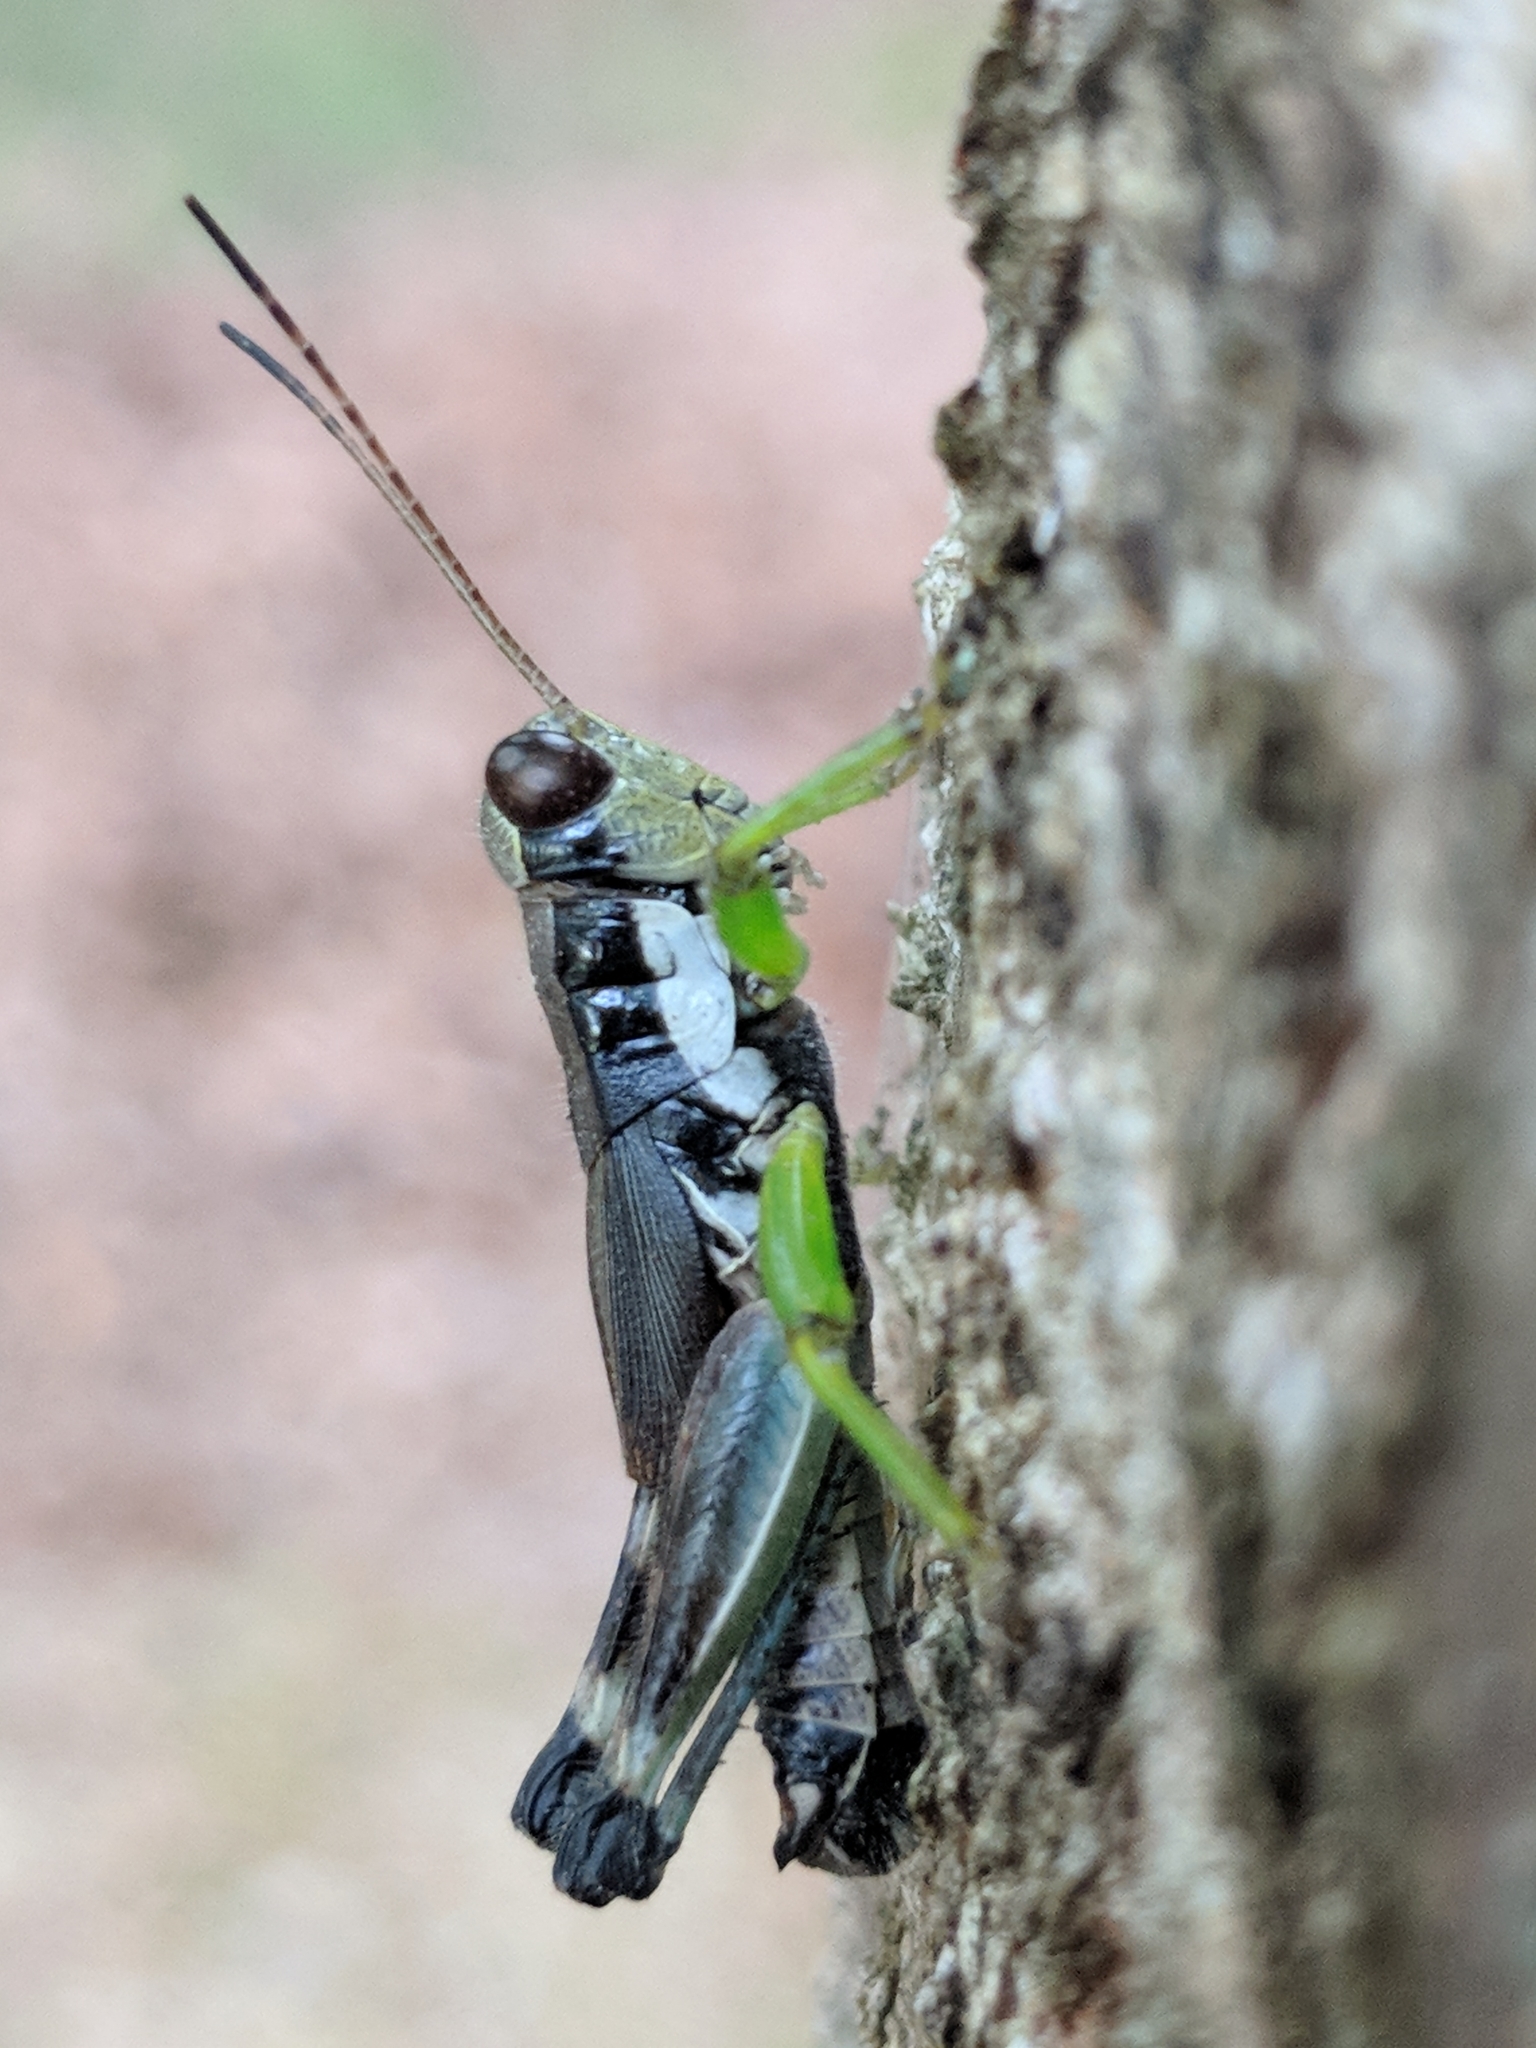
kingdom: Animalia
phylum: Arthropoda
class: Insecta
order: Orthoptera
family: Acrididae
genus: Melanoplus
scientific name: Melanoplus viridipes
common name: Green-legged locust
